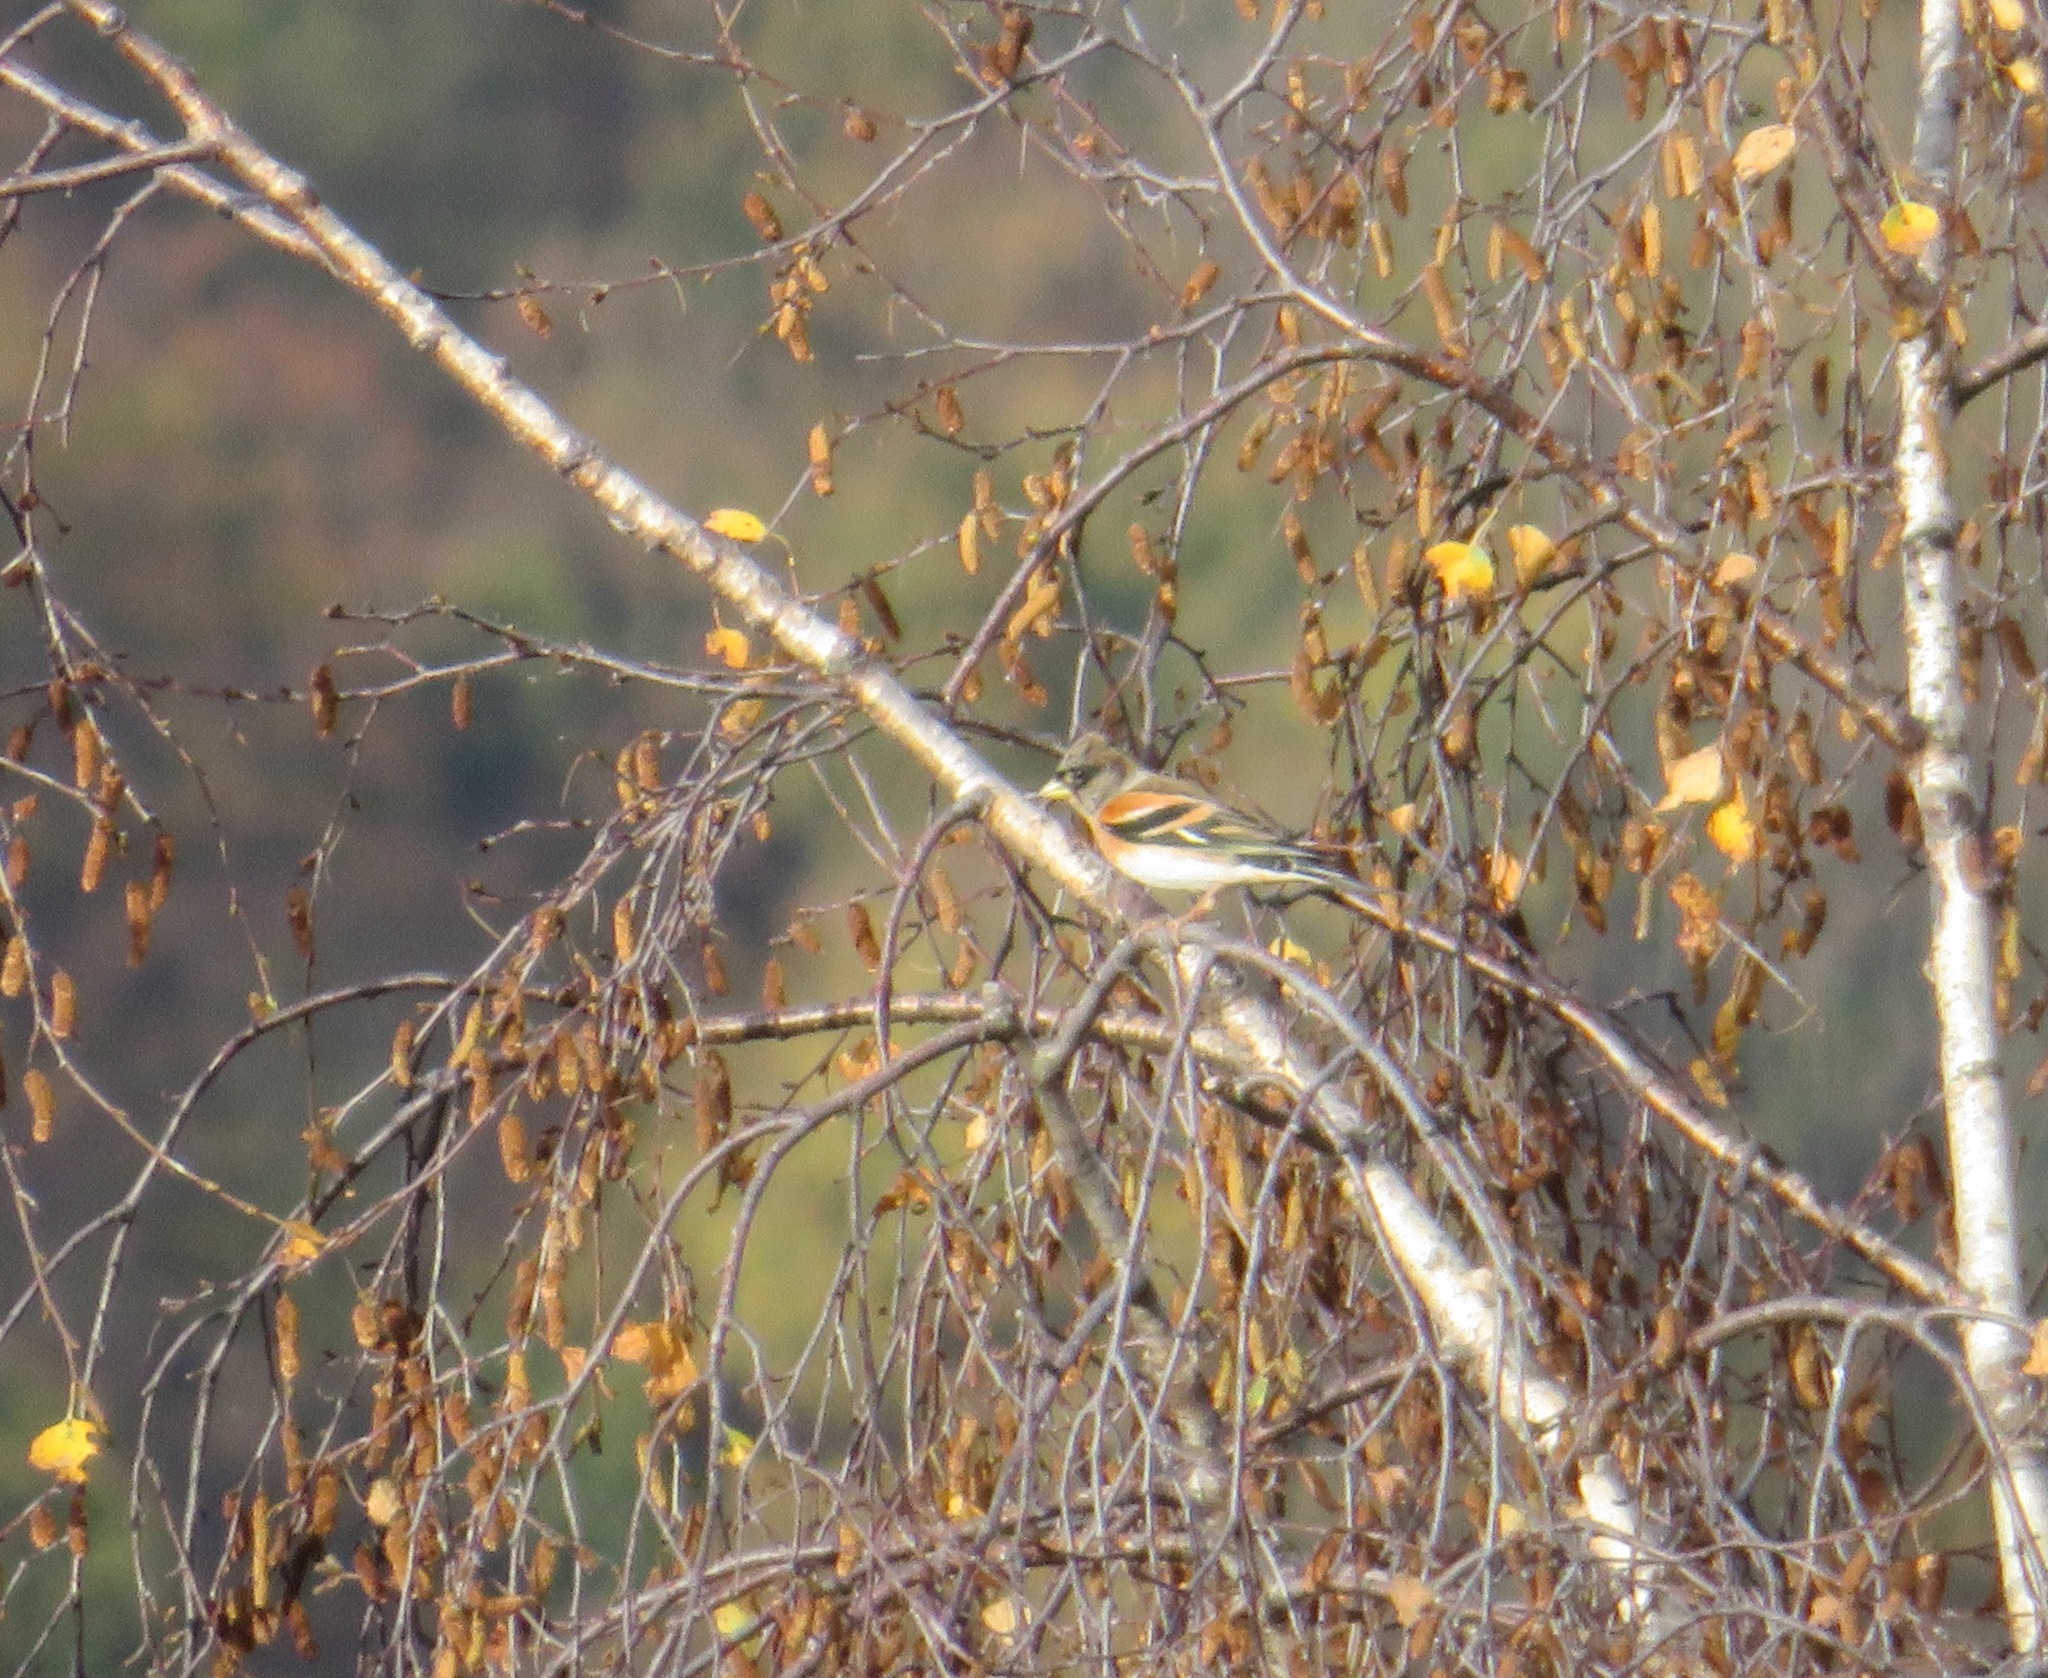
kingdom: Animalia
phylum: Chordata
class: Aves
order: Passeriformes
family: Fringillidae
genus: Fringilla
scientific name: Fringilla montifringilla
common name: Brambling
